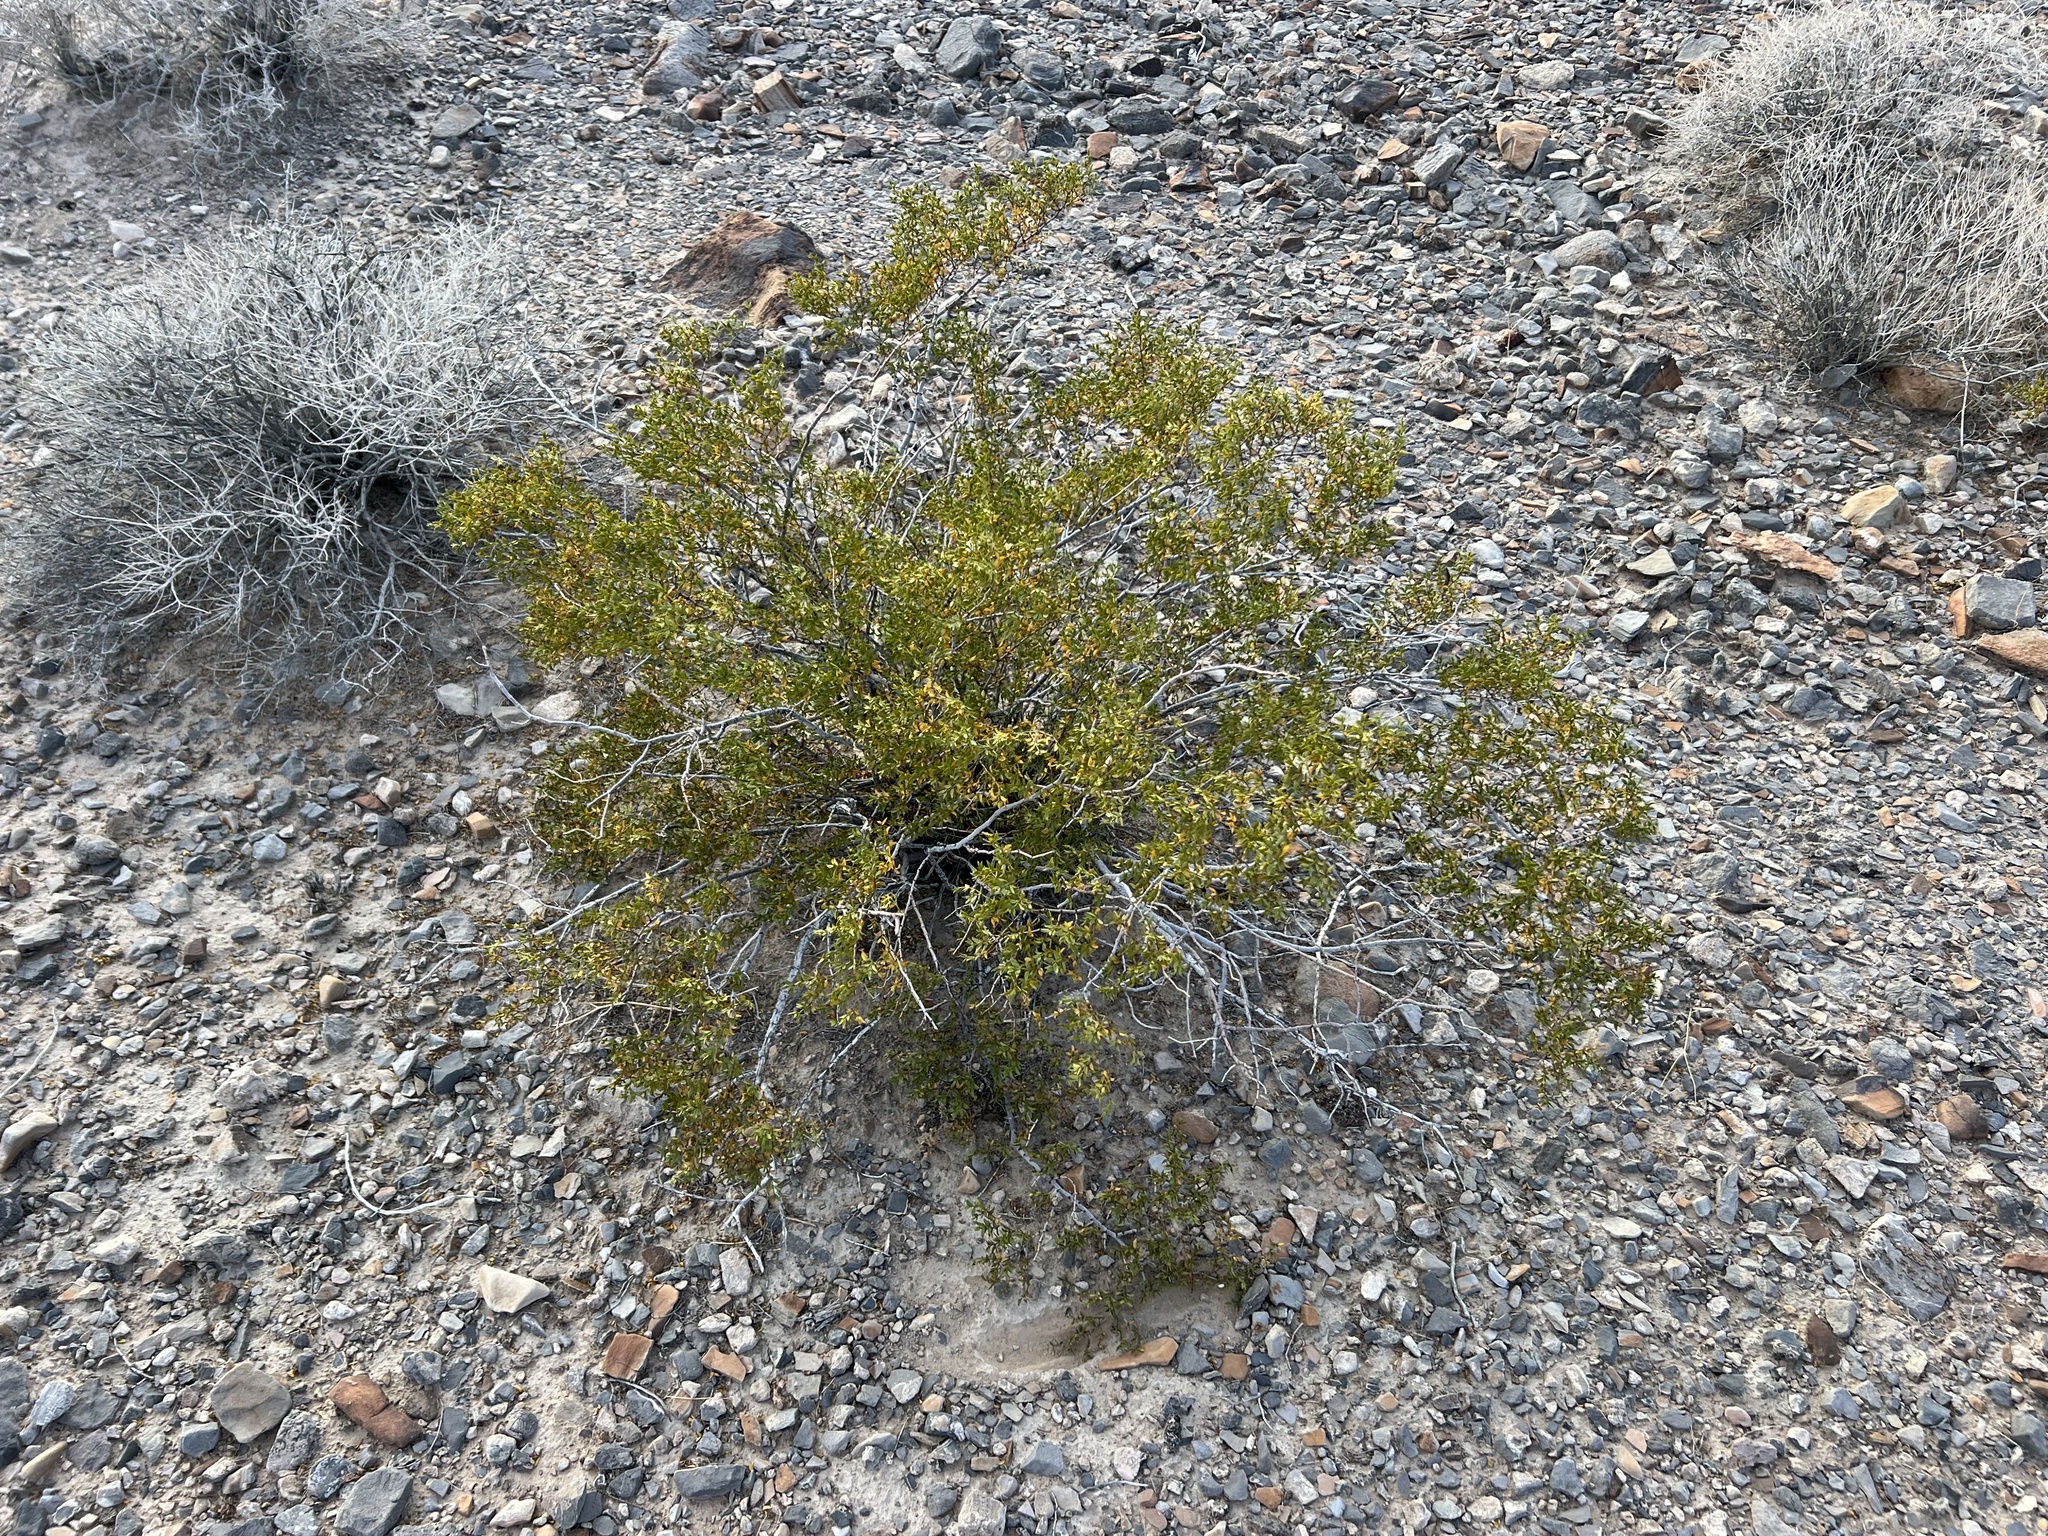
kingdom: Plantae
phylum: Tracheophyta
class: Magnoliopsida
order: Zygophyllales
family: Zygophyllaceae
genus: Larrea
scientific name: Larrea tridentata
